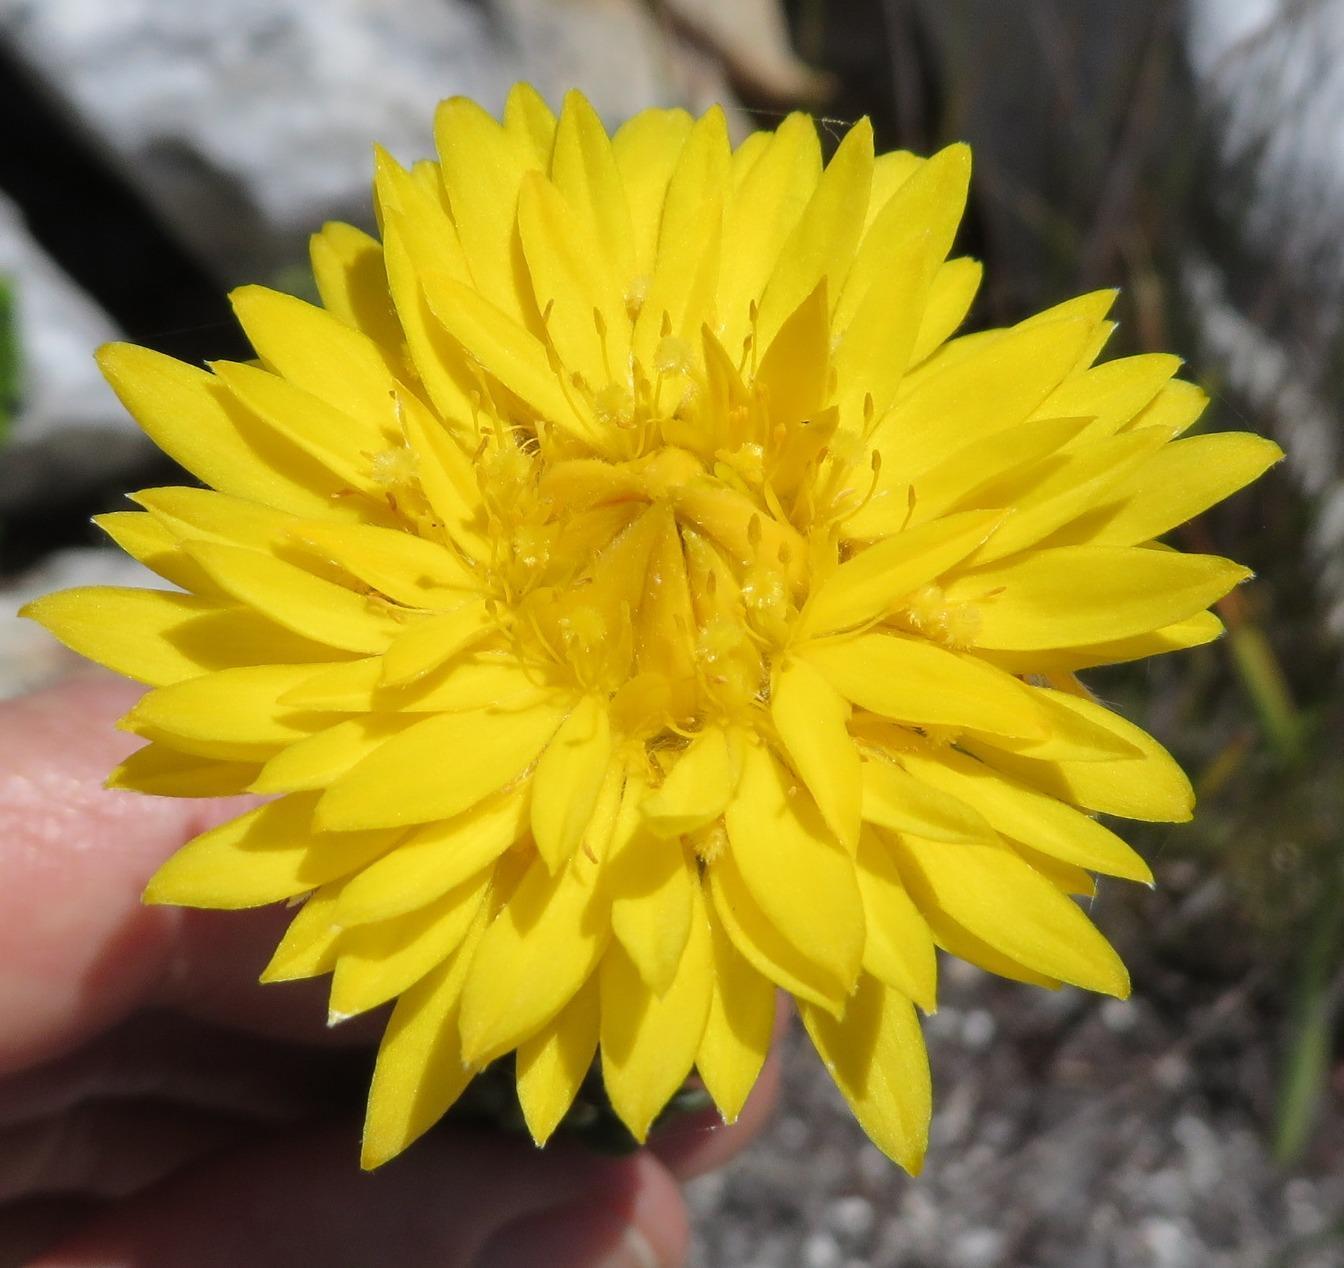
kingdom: Plantae
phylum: Tracheophyta
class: Magnoliopsida
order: Malvales
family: Thymelaeaceae
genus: Lachnaea
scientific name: Lachnaea aurea
